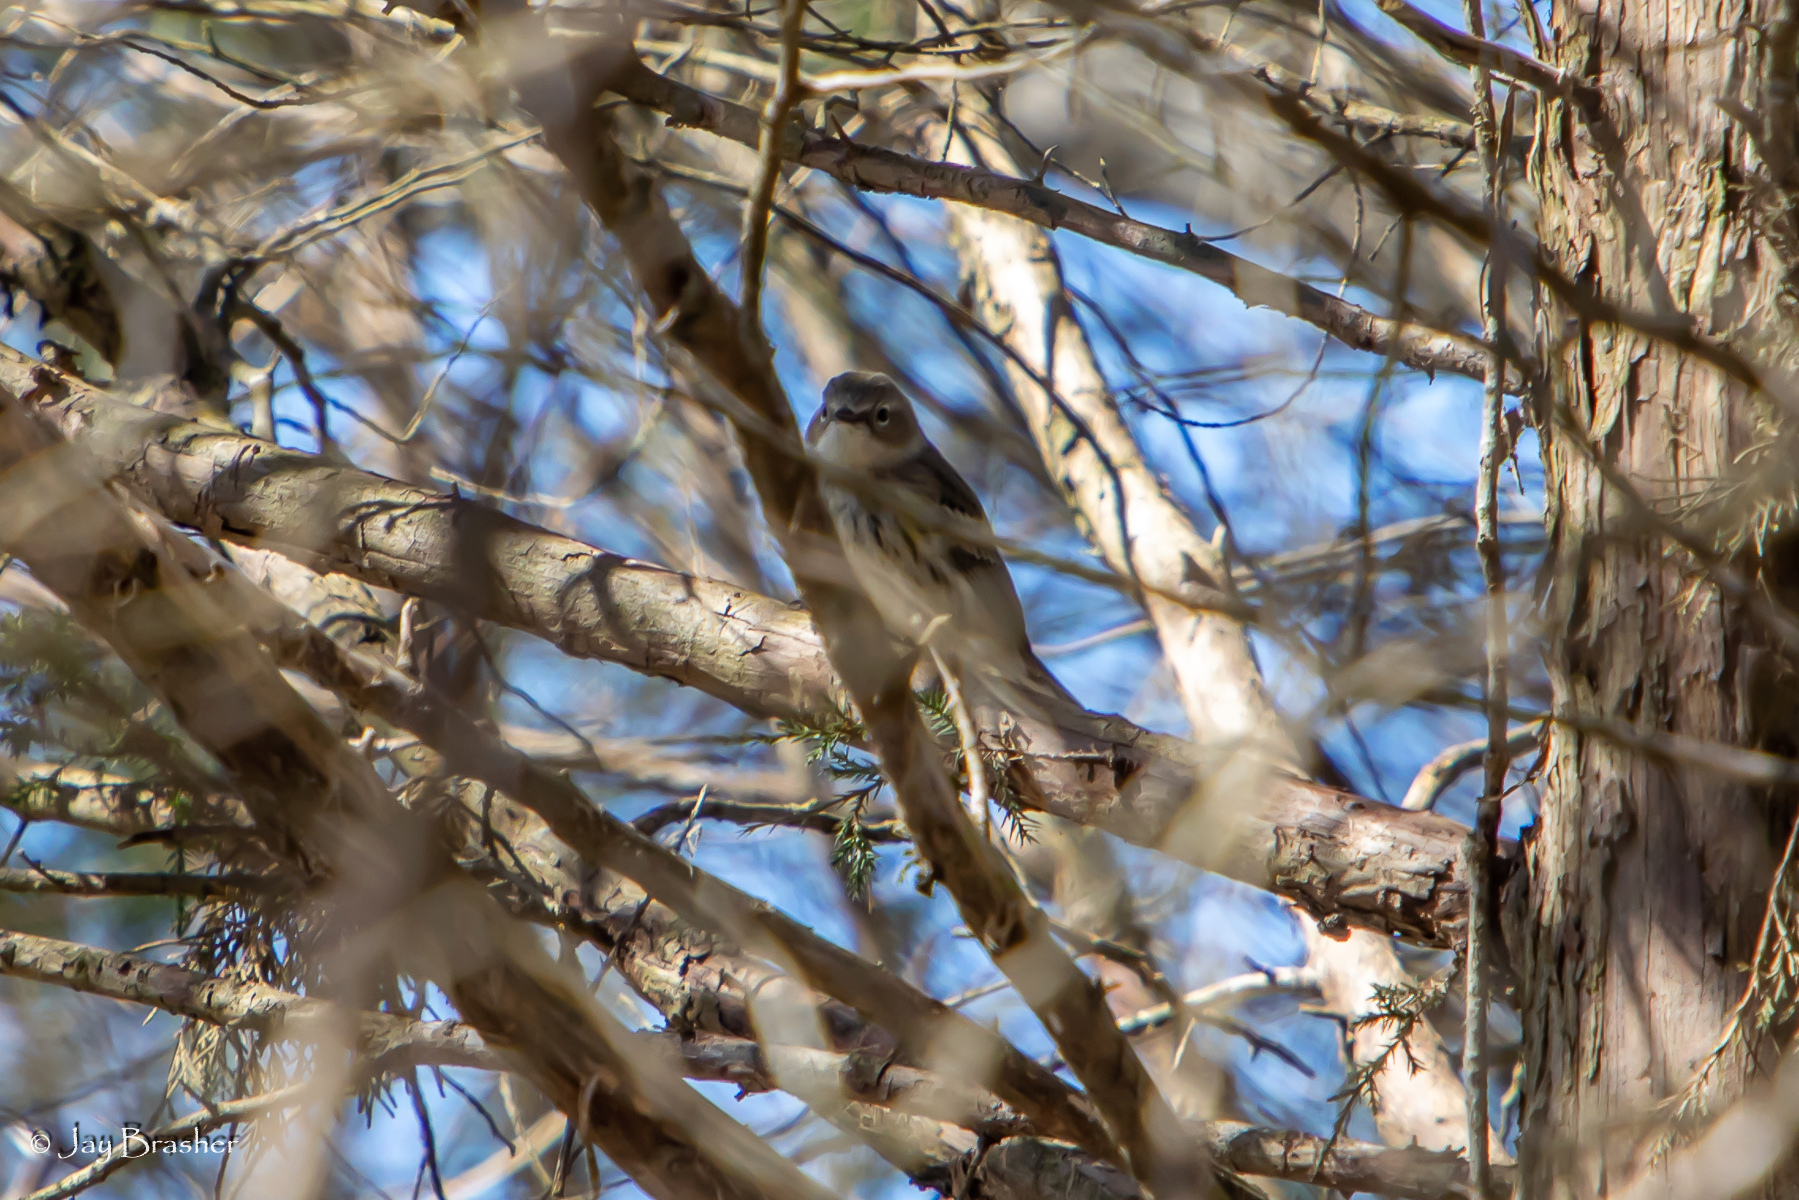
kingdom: Animalia
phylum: Chordata
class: Aves
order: Passeriformes
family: Parulidae
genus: Setophaga
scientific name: Setophaga coronata
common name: Myrtle warbler
